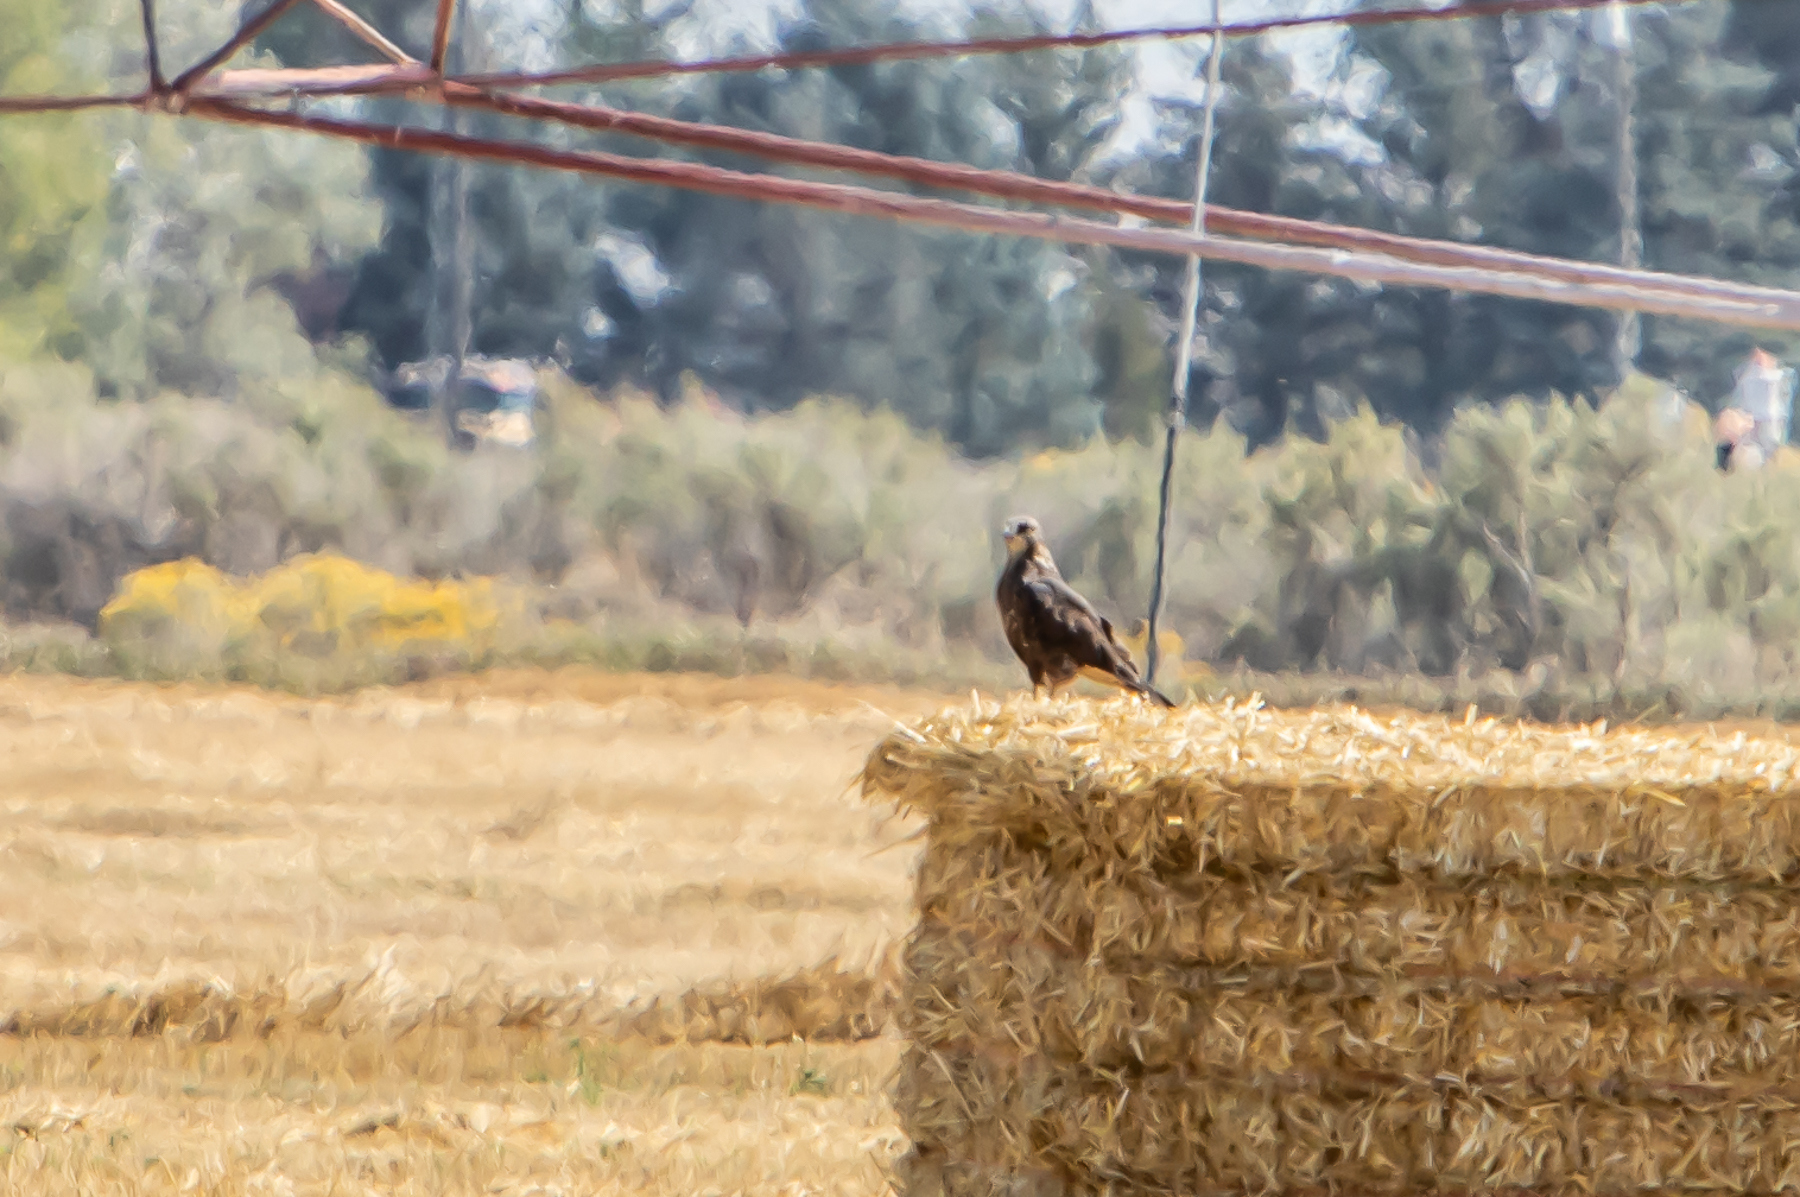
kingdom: Animalia
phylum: Chordata
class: Aves
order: Accipitriformes
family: Accipitridae
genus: Buteo
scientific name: Buteo swainsoni
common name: Swainson's hawk
